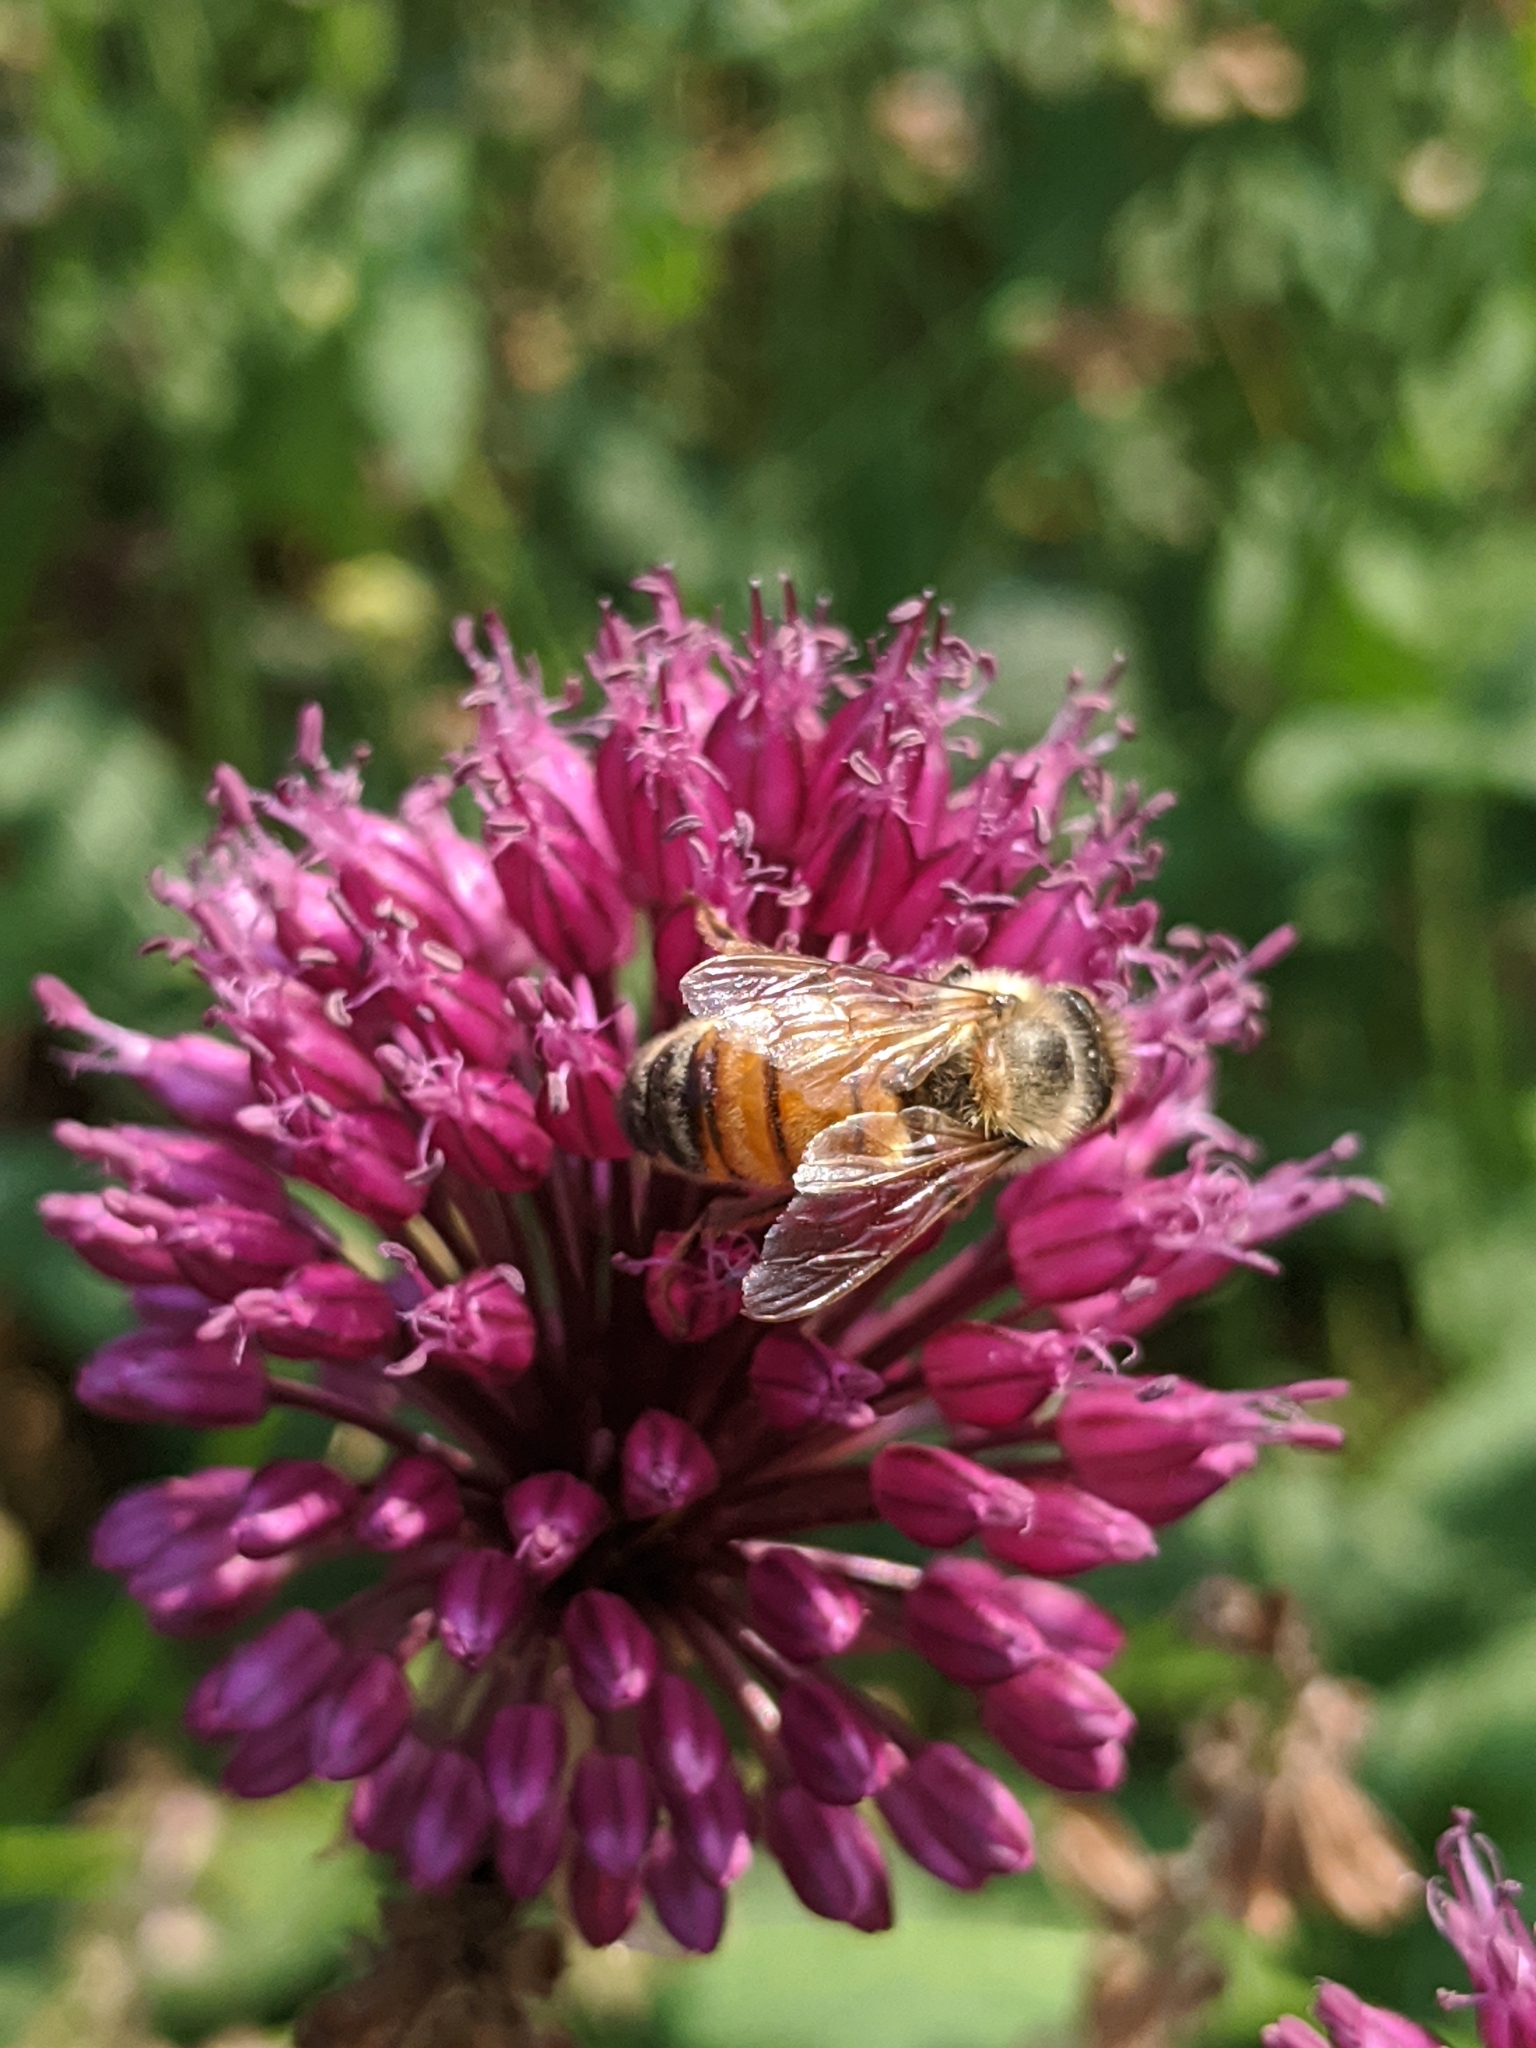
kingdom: Animalia
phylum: Arthropoda
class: Insecta
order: Hymenoptera
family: Apidae
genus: Apis
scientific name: Apis mellifera
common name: Honey bee
